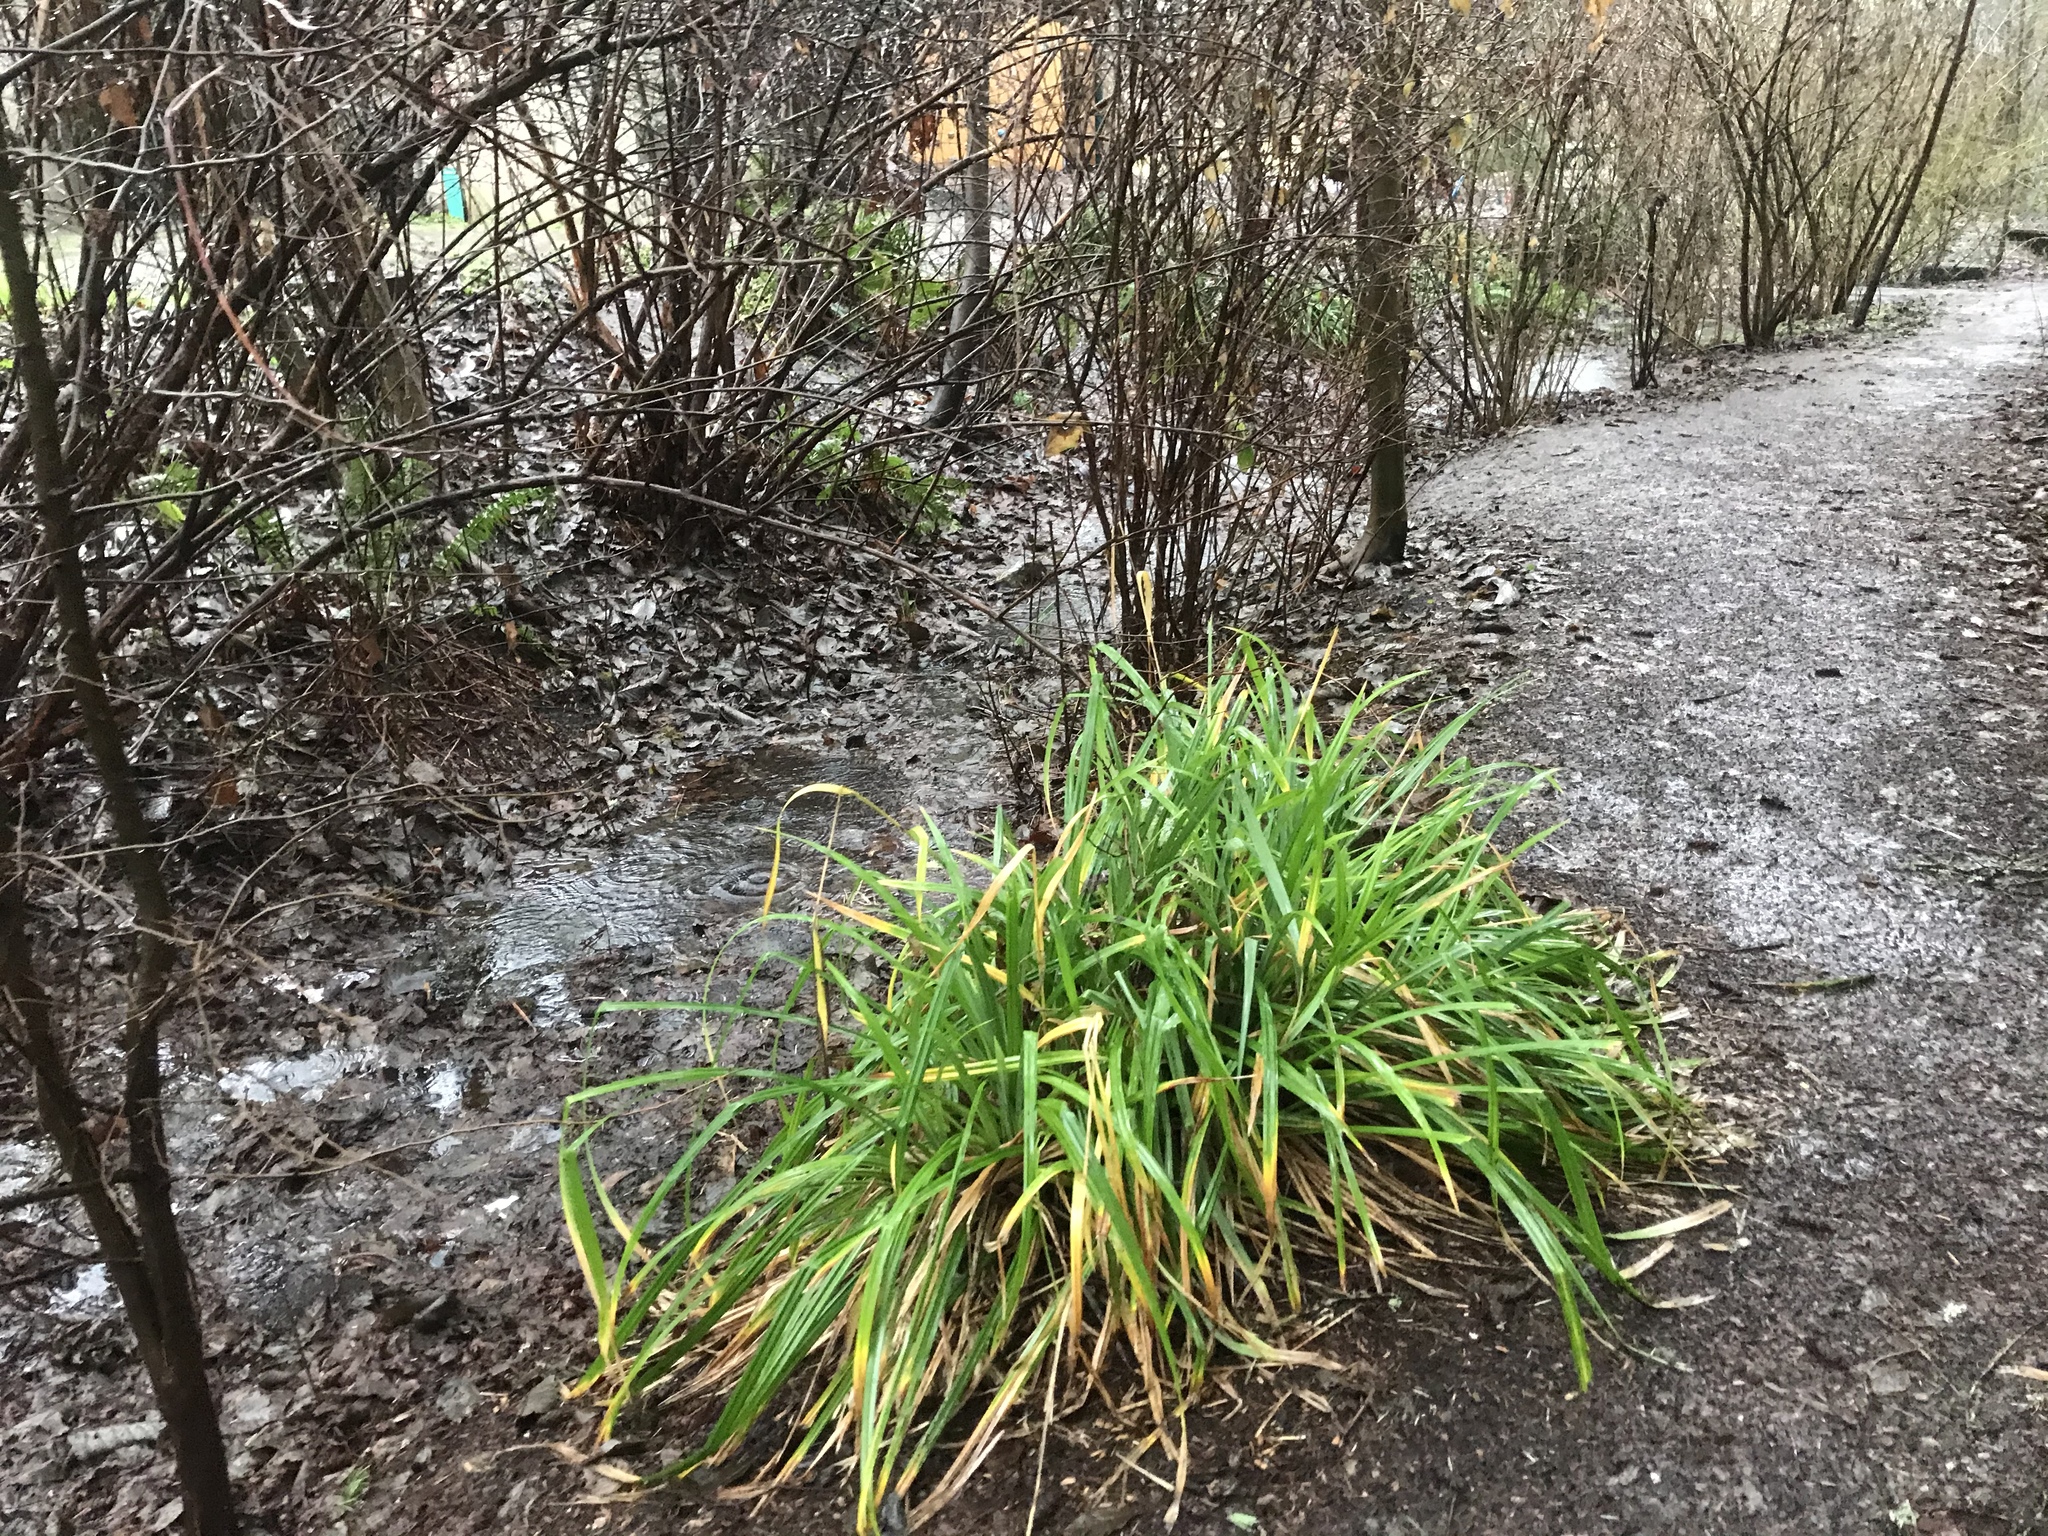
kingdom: Plantae
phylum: Tracheophyta
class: Liliopsida
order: Poales
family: Cyperaceae
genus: Carex
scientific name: Carex pendula
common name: Pendulous sedge
